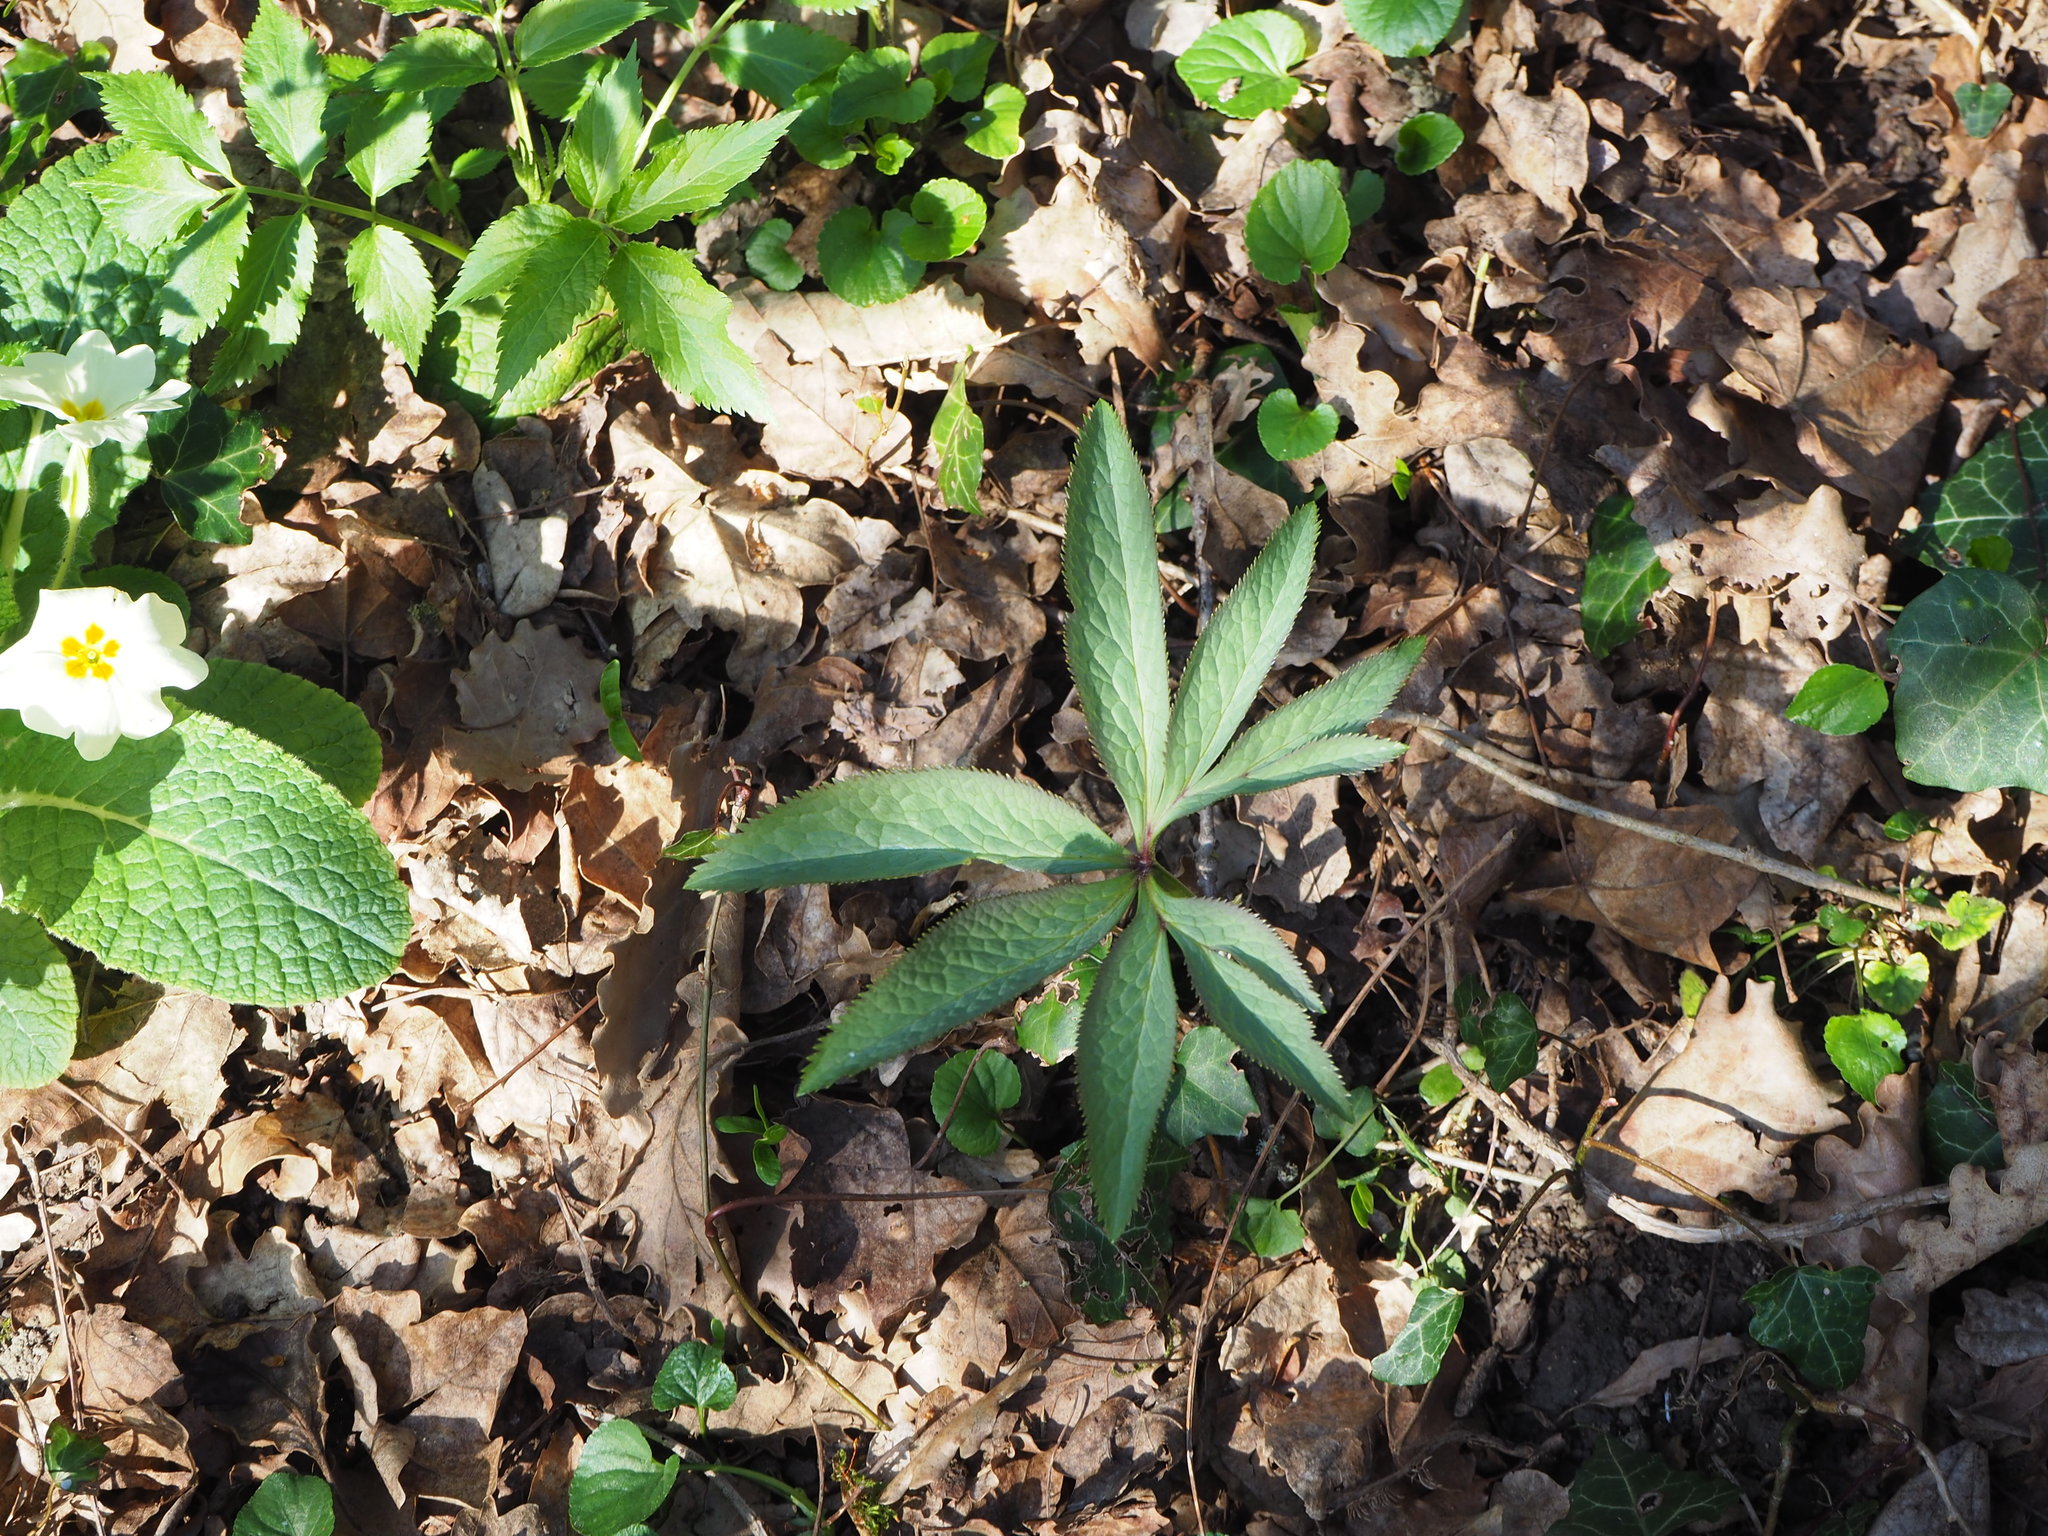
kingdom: Plantae
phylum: Tracheophyta
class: Magnoliopsida
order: Ranunculales
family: Ranunculaceae
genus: Helleborus
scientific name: Helleborus viridis
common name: Green hellebore
